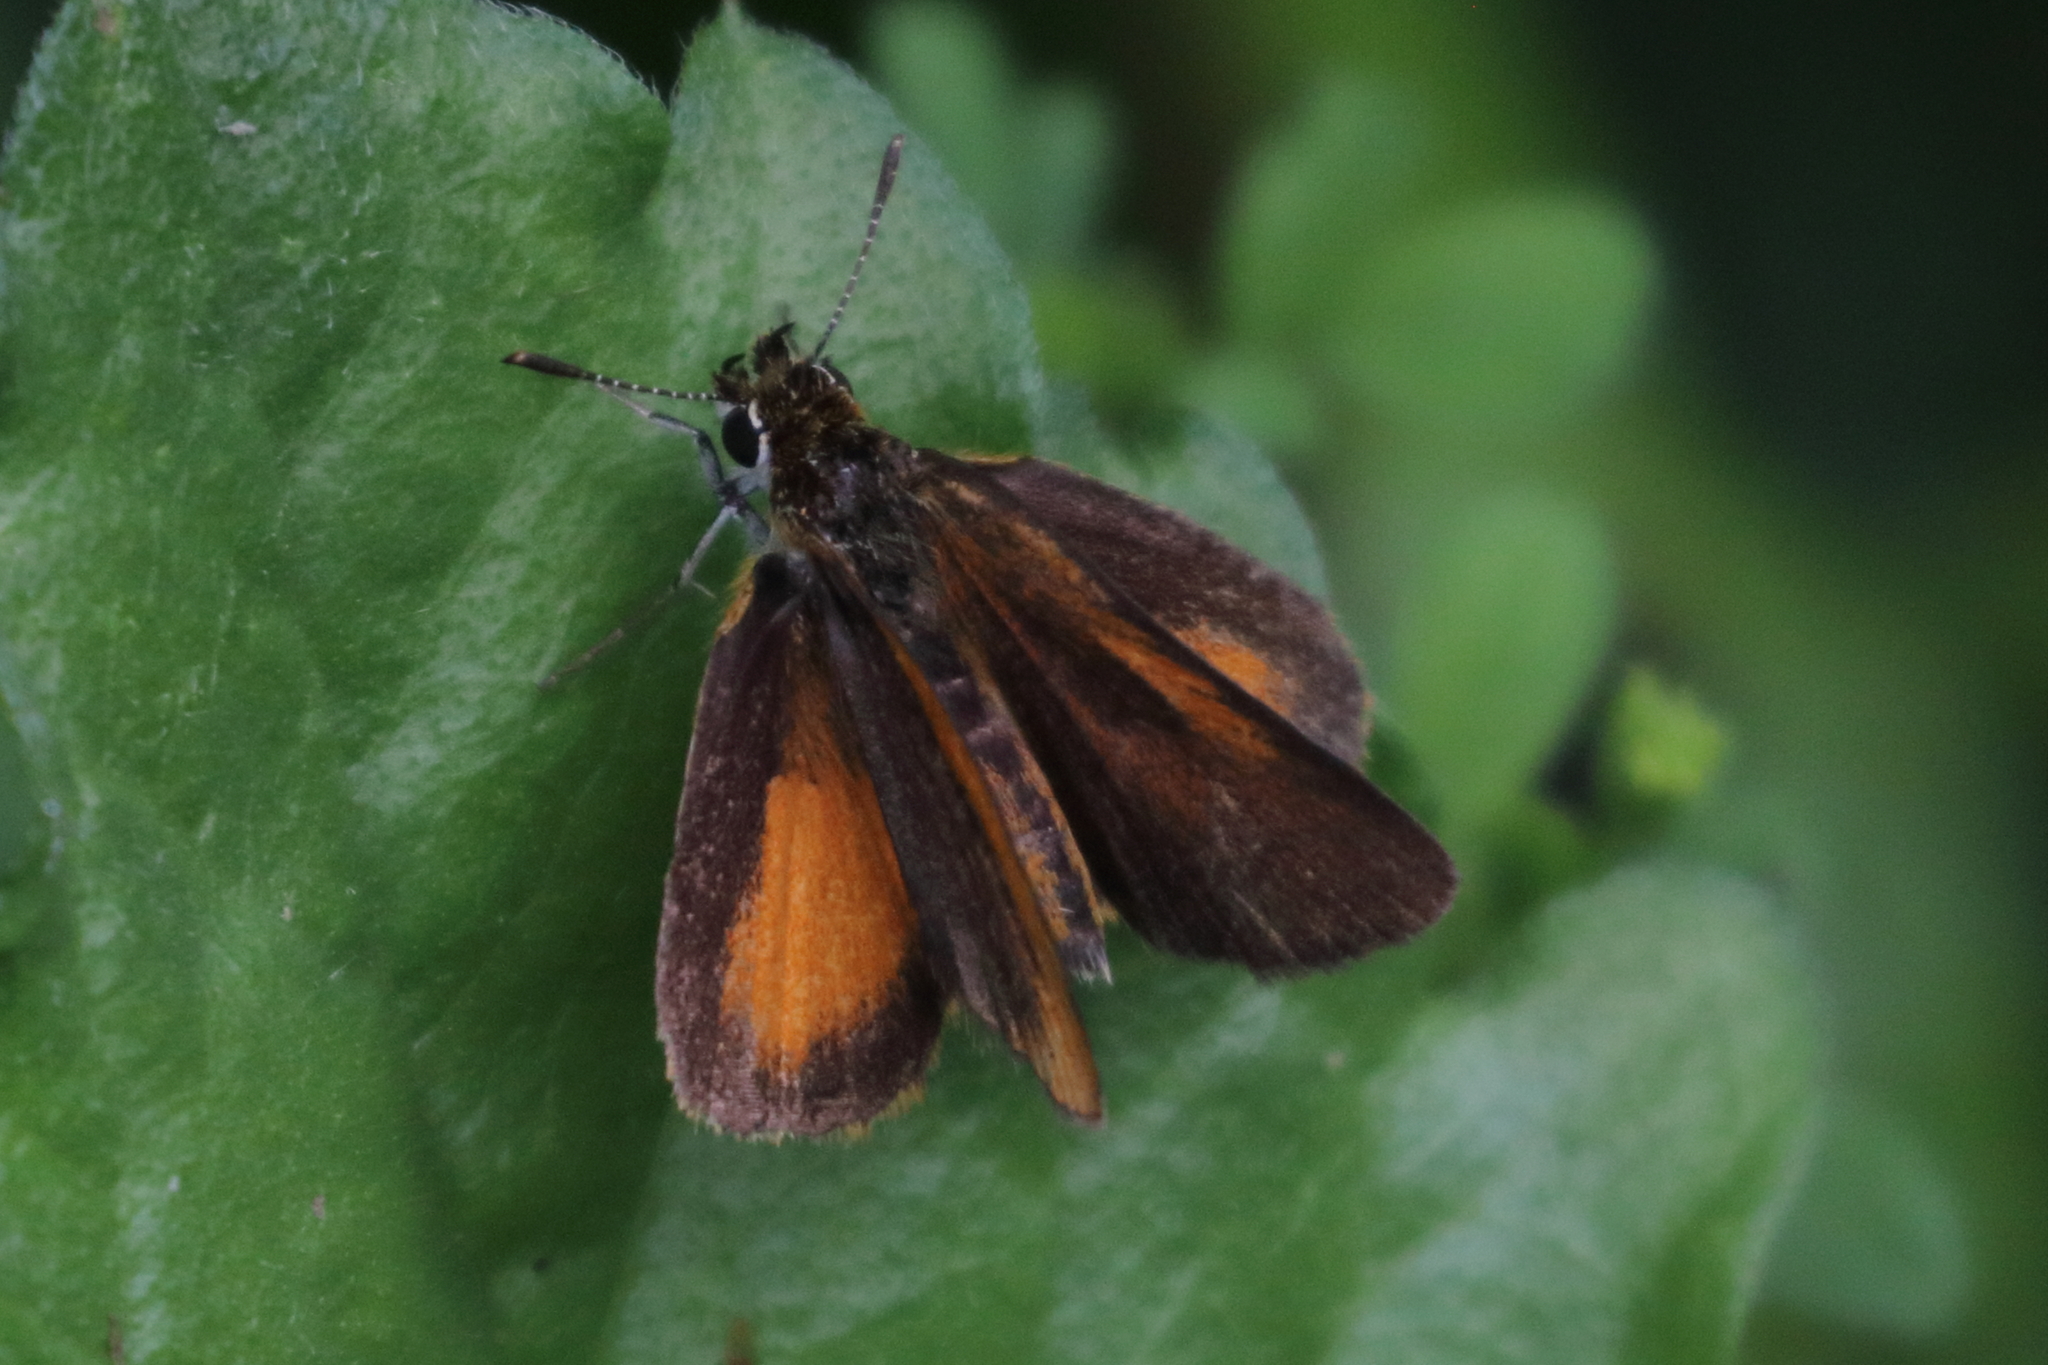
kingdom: Animalia
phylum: Arthropoda
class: Insecta
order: Lepidoptera
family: Hesperiidae
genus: Ancyloxypha
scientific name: Ancyloxypha numitor
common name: Least skipper
